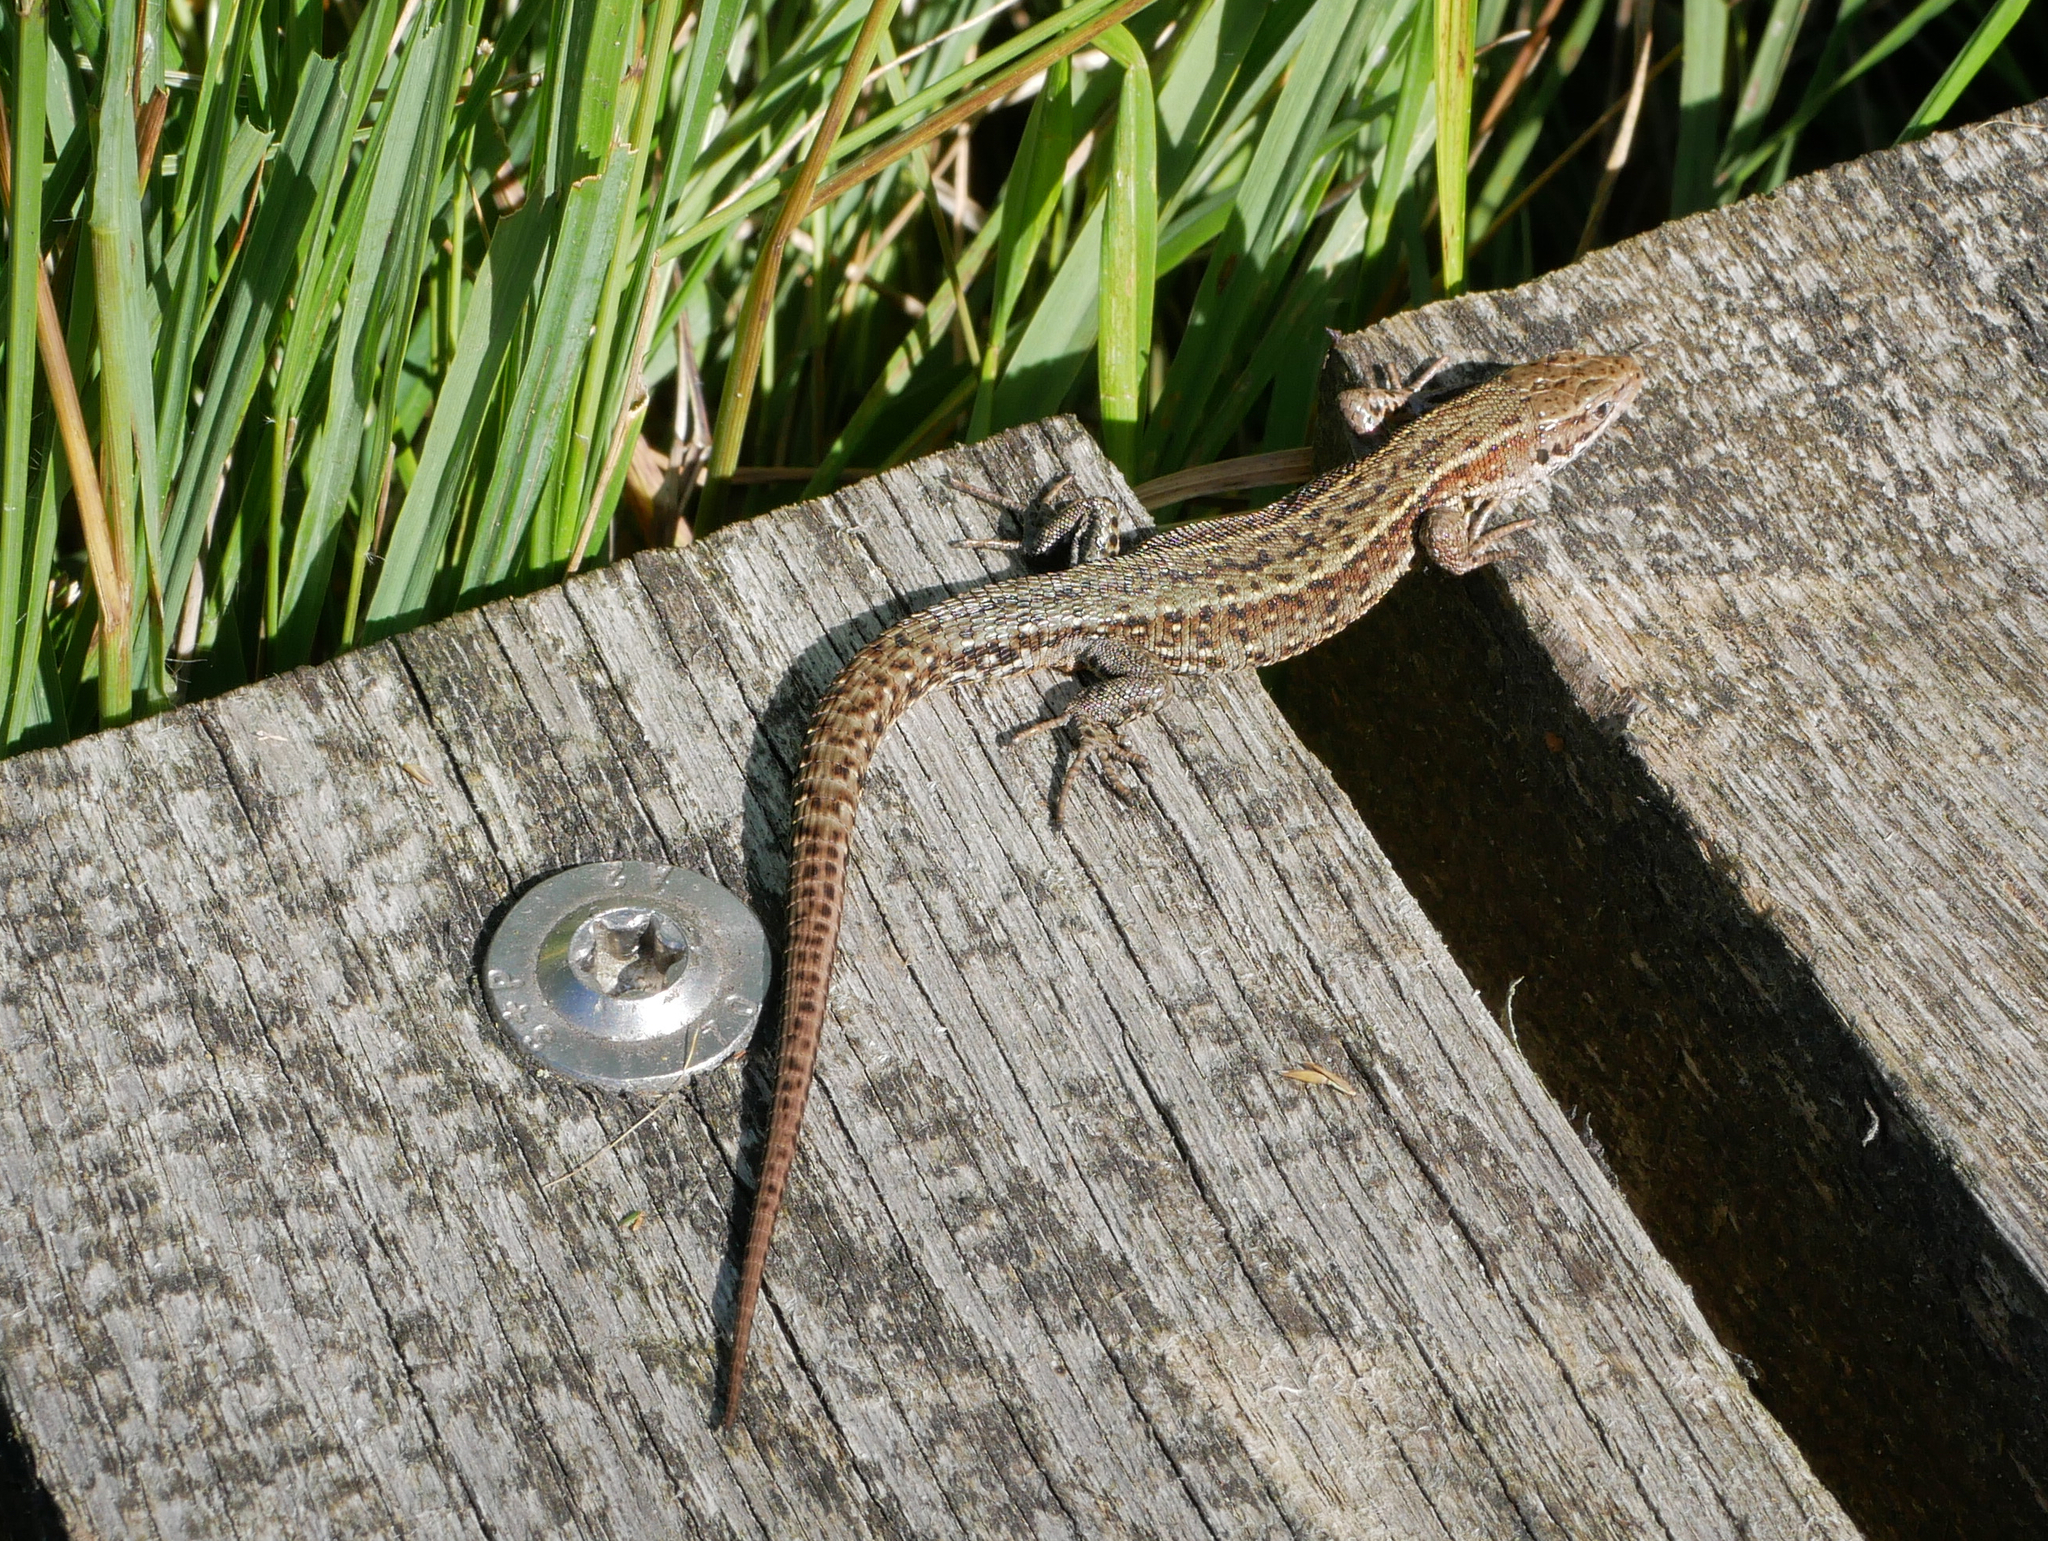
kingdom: Animalia
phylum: Chordata
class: Squamata
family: Lacertidae
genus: Zootoca
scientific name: Zootoca vivipara
